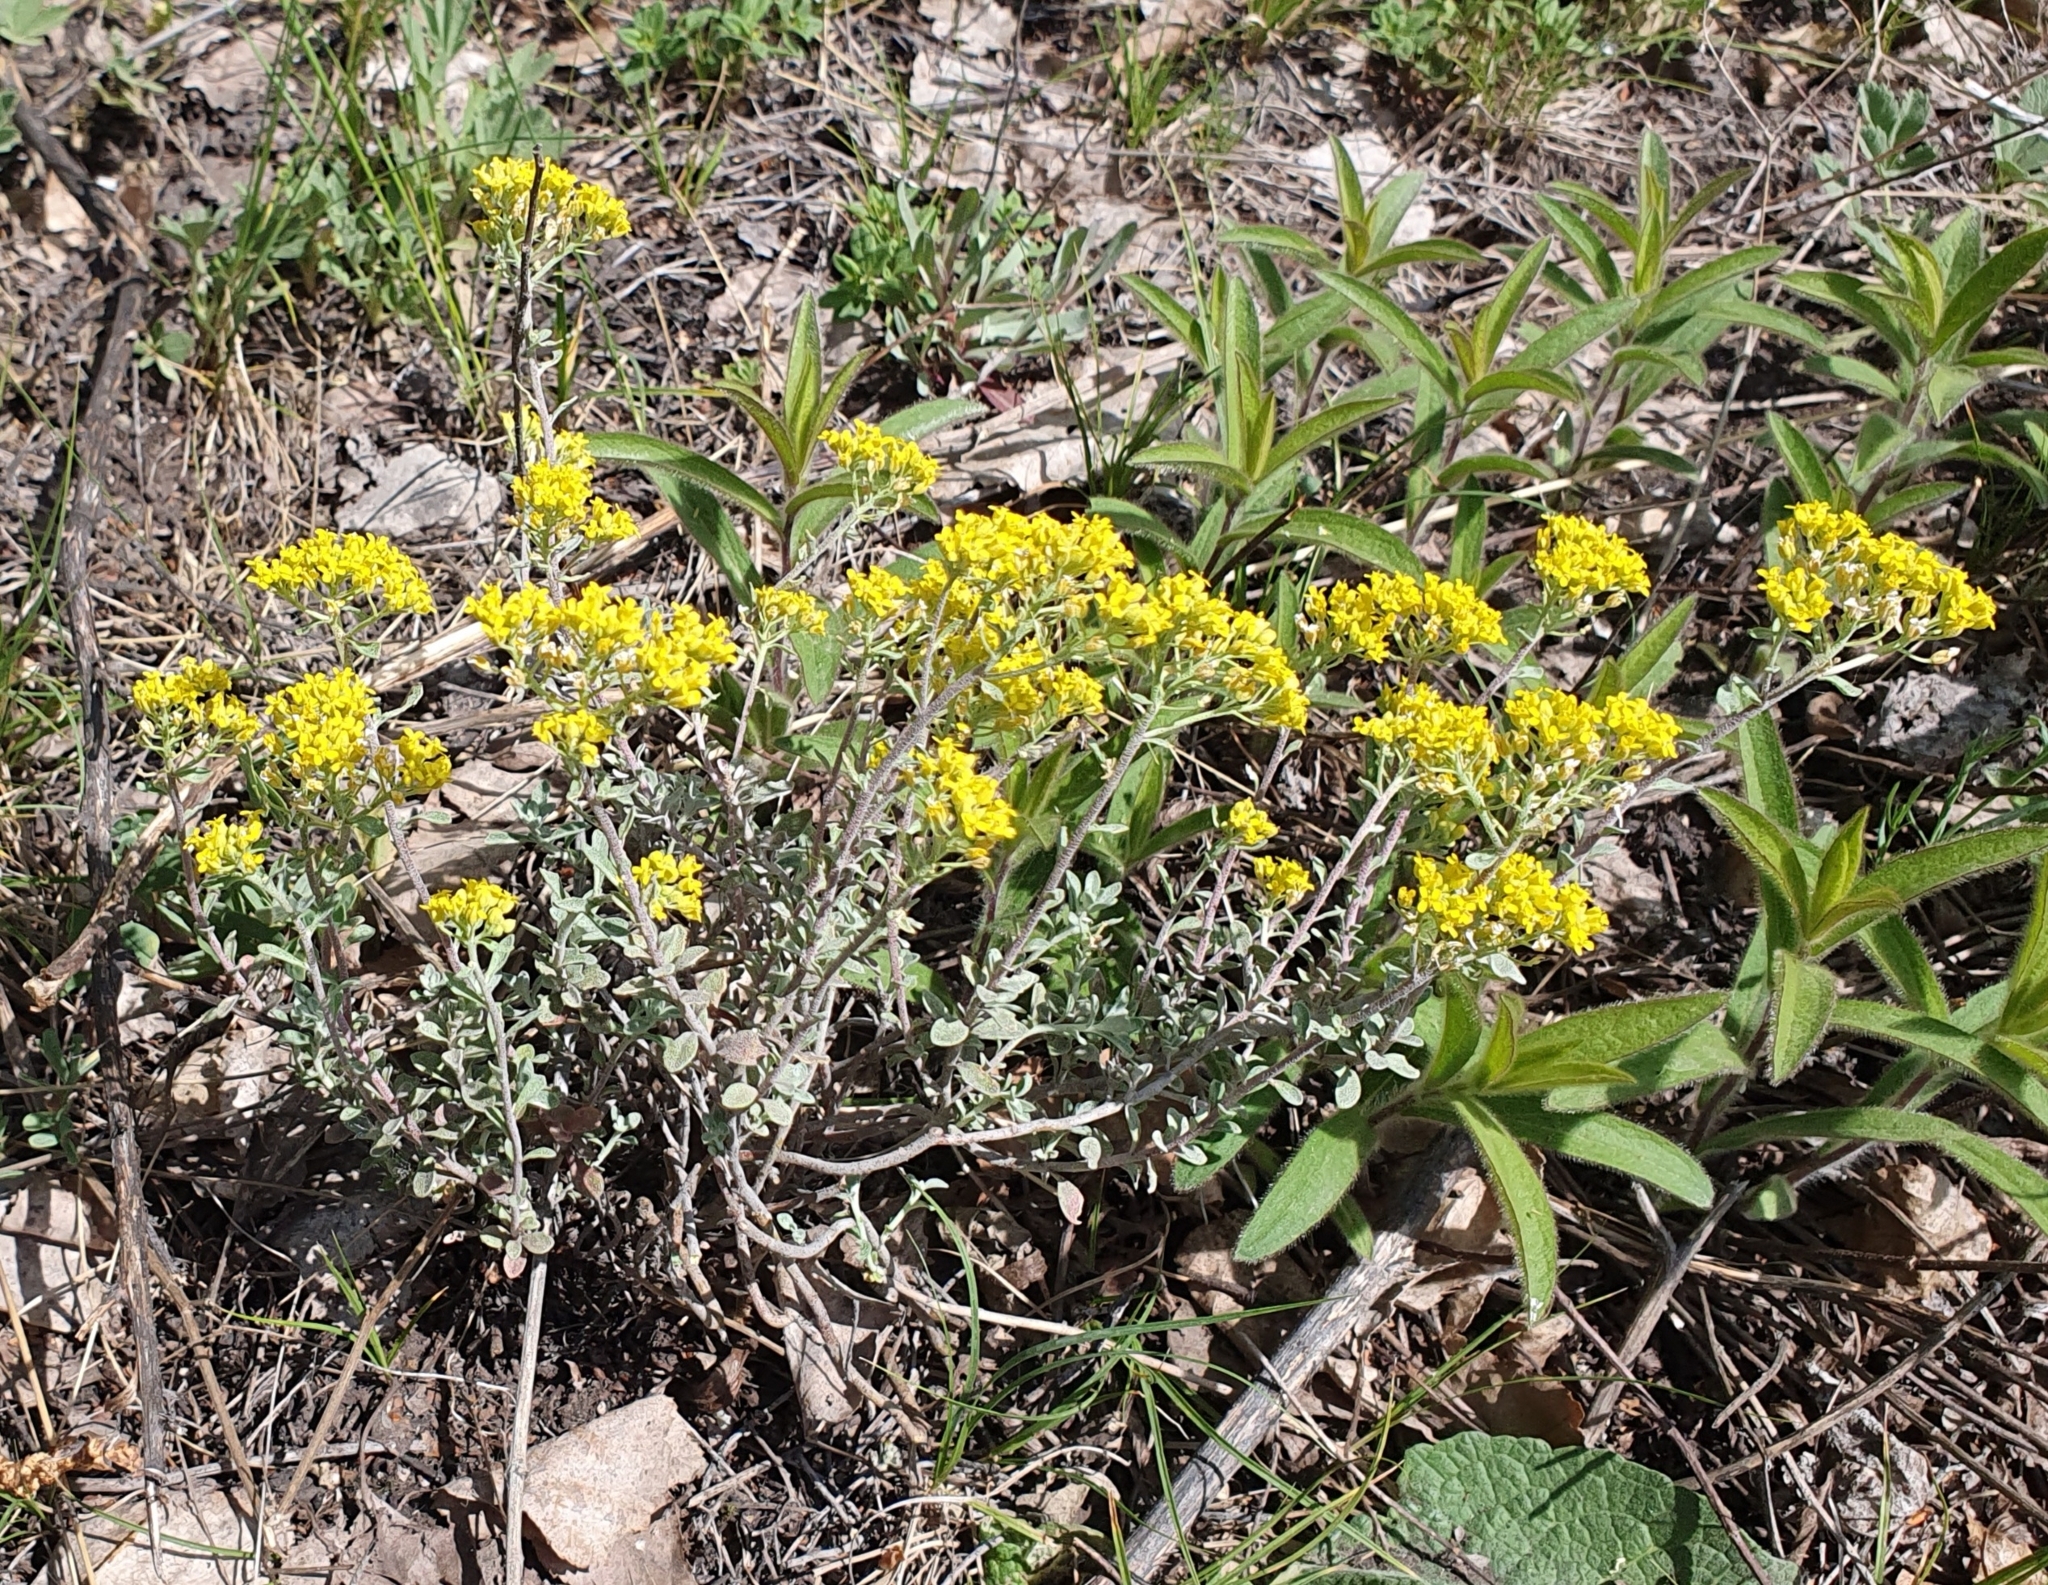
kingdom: Plantae
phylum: Tracheophyta
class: Magnoliopsida
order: Brassicales
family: Brassicaceae
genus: Odontarrhena
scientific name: Odontarrhena tortuosa
